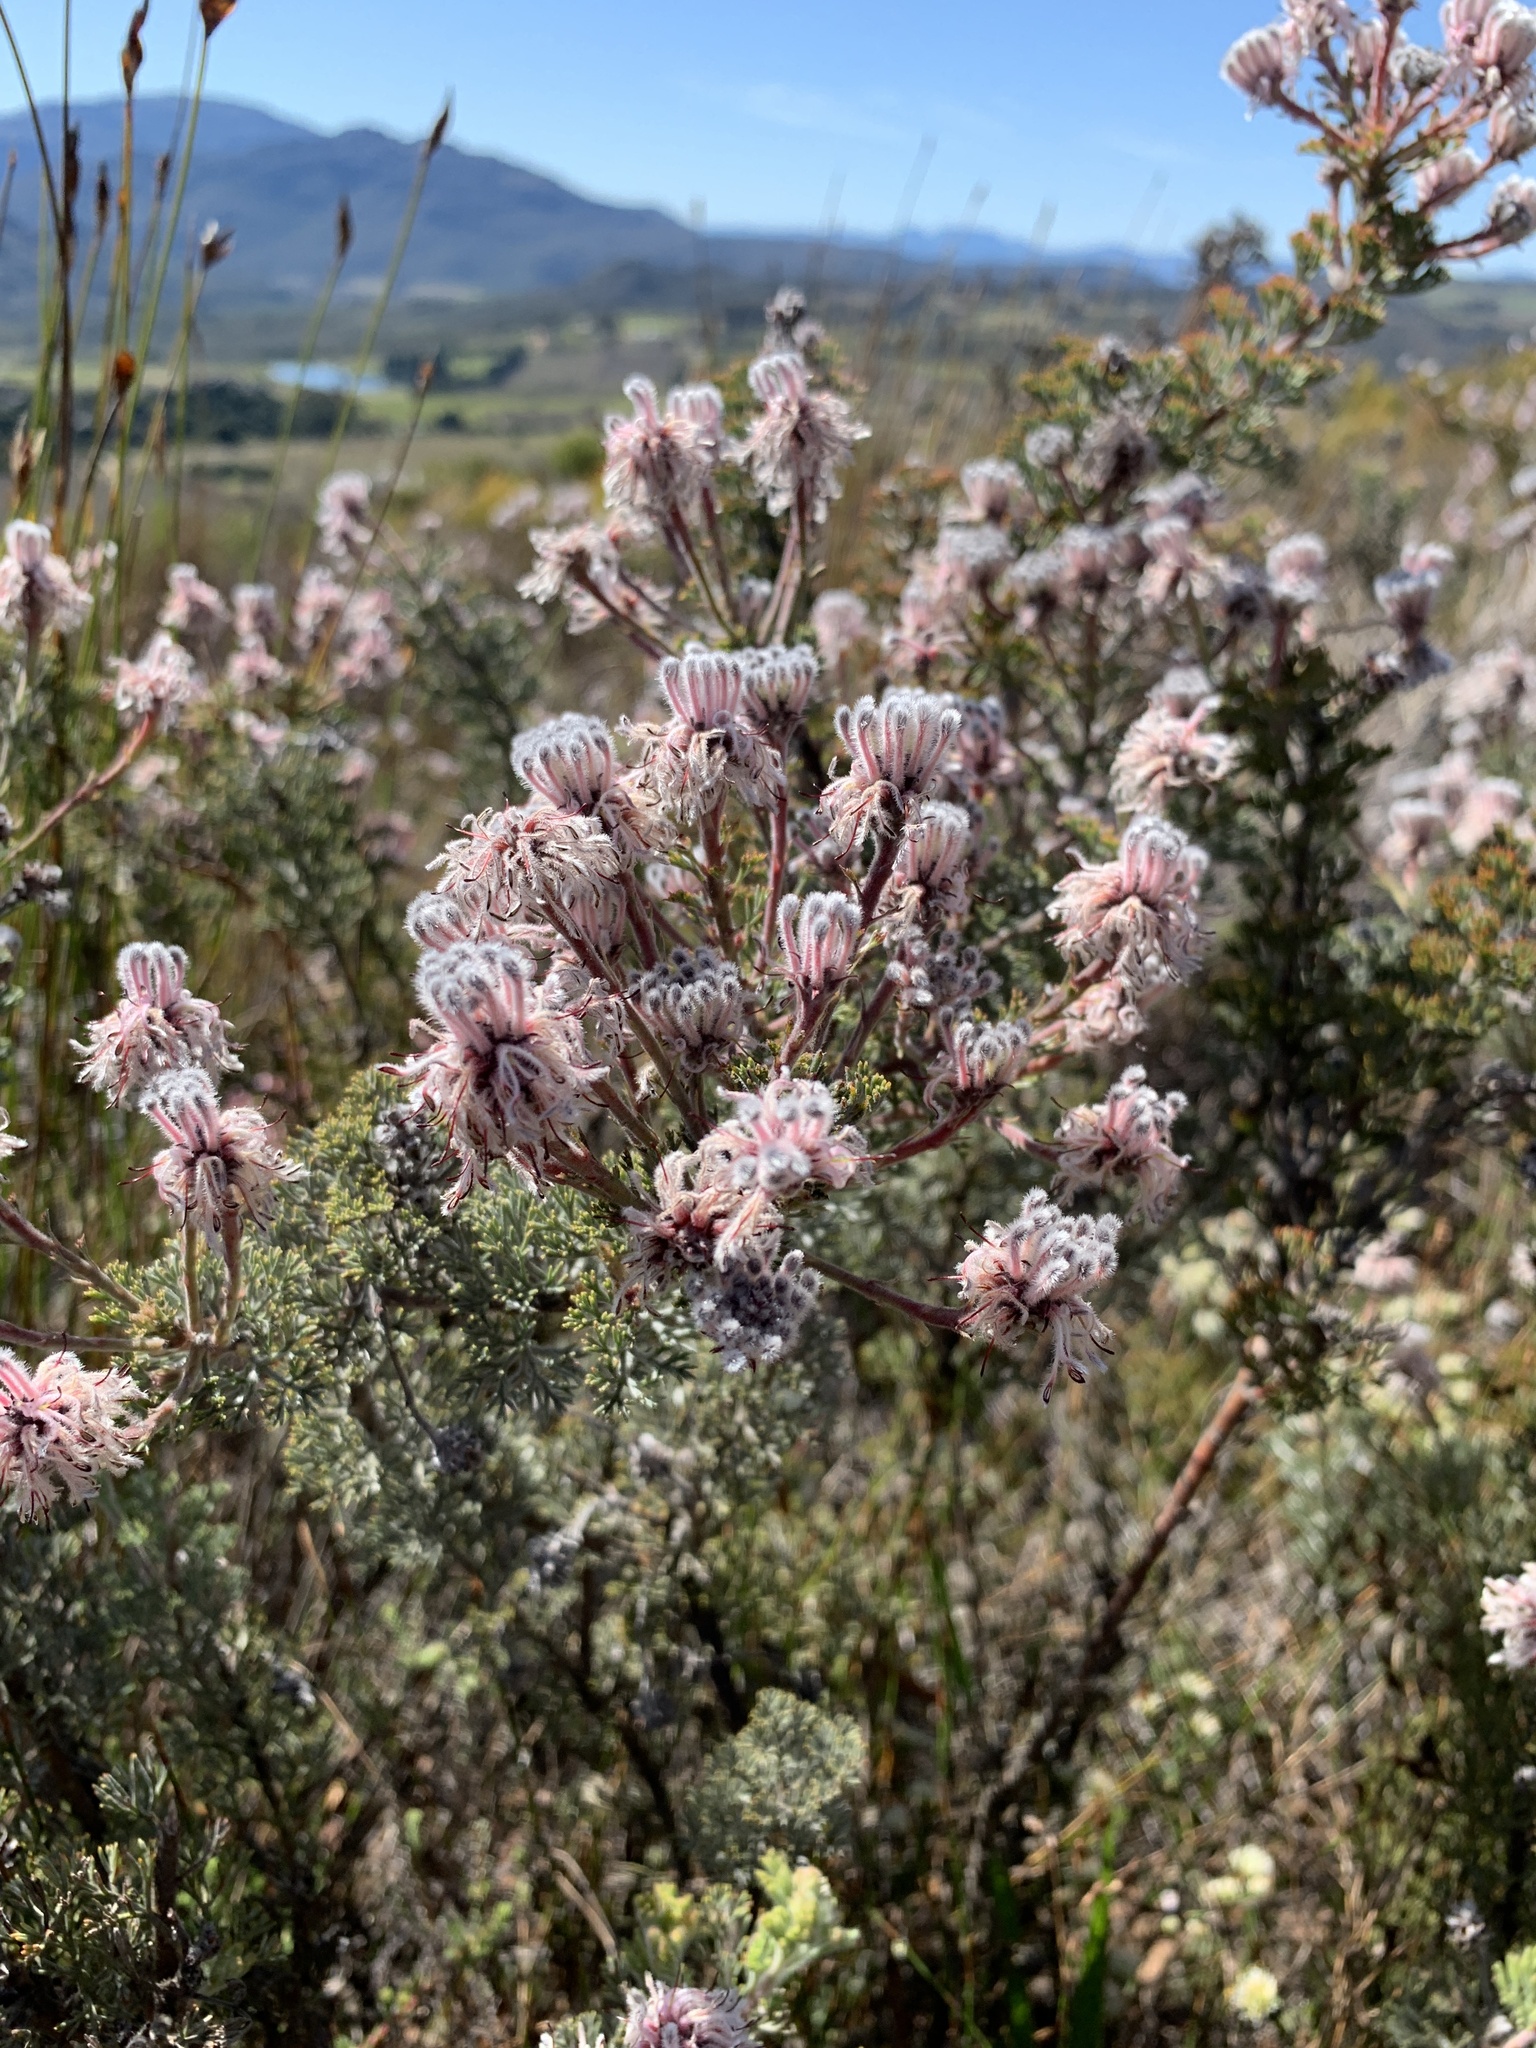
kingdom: Plantae
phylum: Tracheophyta
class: Magnoliopsida
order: Proteales
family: Proteaceae
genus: Serruria
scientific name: Serruria aitonii
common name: Marshmallow spiderhead
